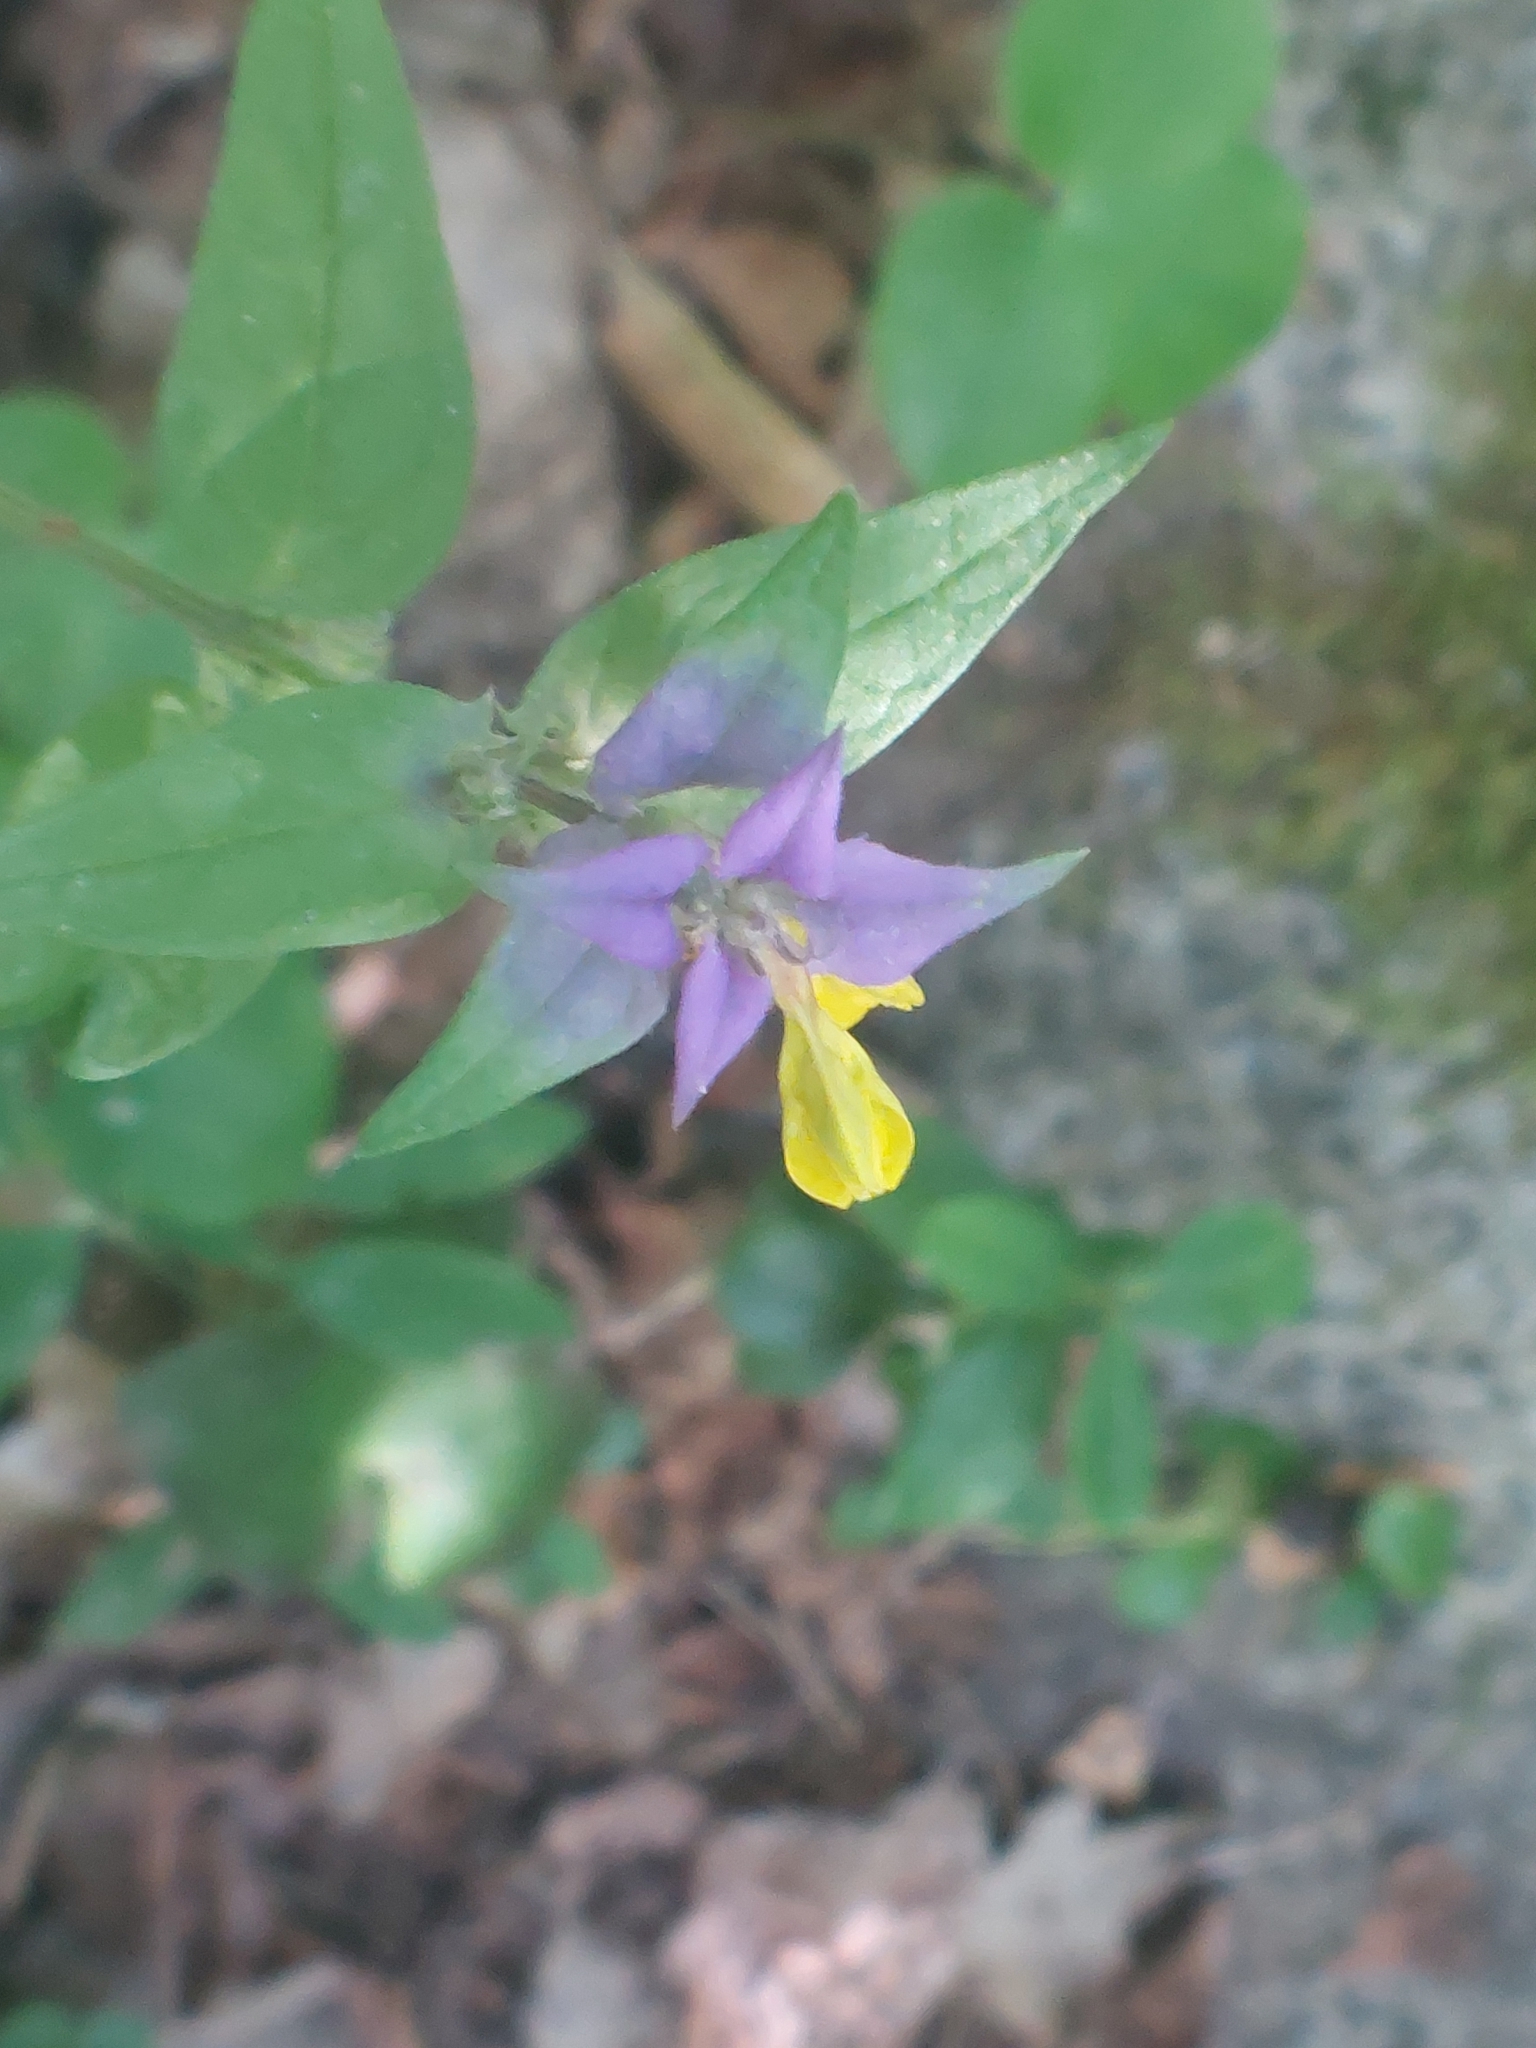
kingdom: Plantae
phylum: Tracheophyta
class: Magnoliopsida
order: Lamiales
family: Orobanchaceae
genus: Melampyrum
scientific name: Melampyrum nemorosum
